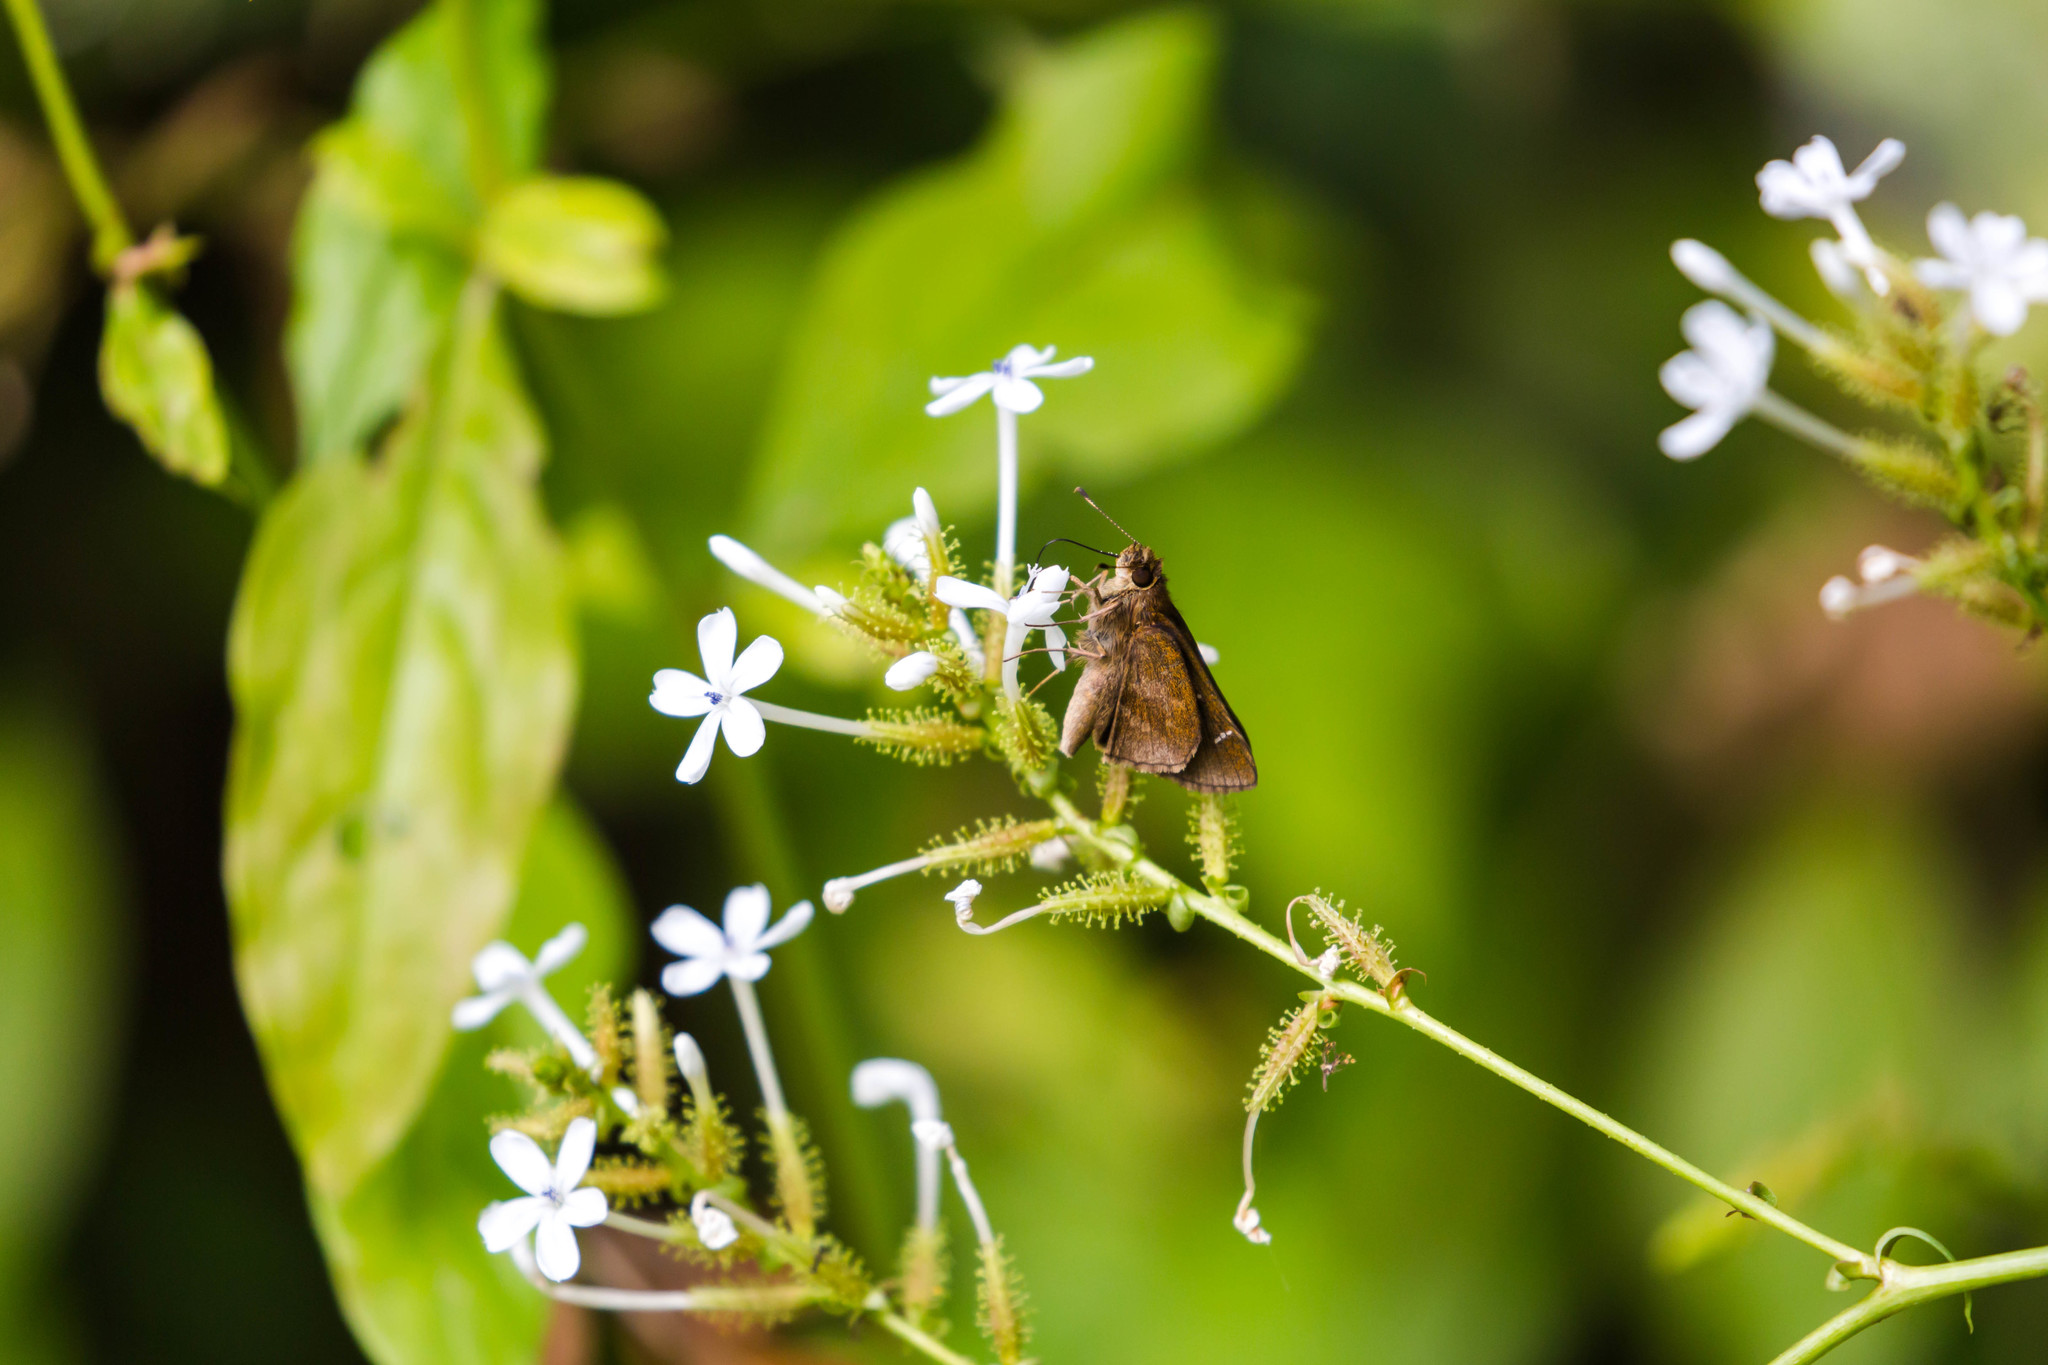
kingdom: Animalia
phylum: Arthropoda
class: Insecta
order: Lepidoptera
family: Hesperiidae
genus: Lerema
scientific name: Lerema accius
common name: Clouded skipper
